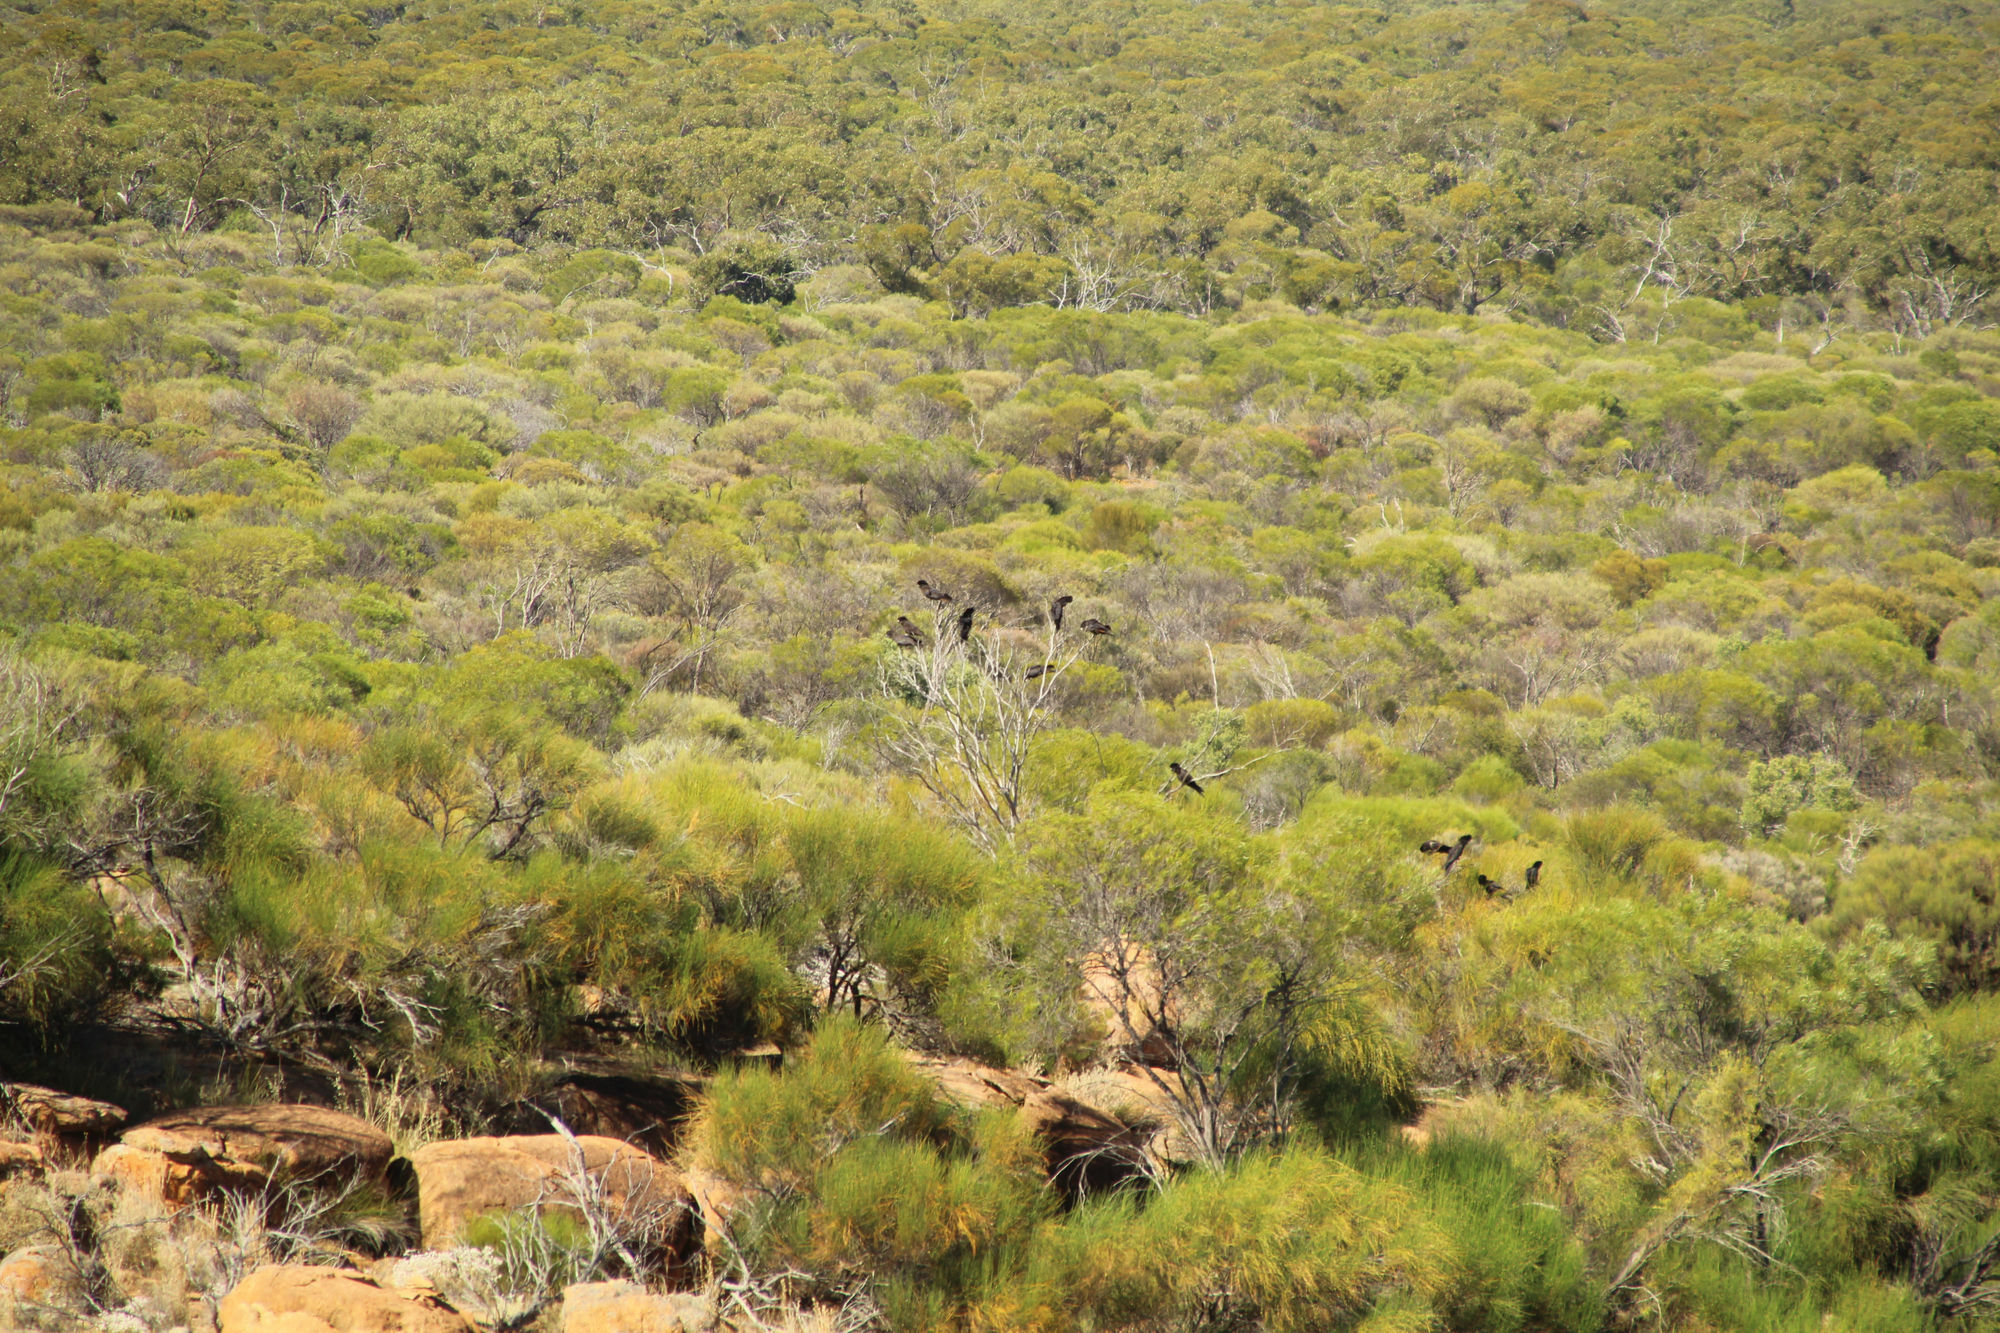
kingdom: Animalia
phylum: Chordata
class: Aves
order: Psittaciformes
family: Psittacidae
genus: Calyptorhynchus
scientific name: Calyptorhynchus banksii
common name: Red-tailed black cockatoo
